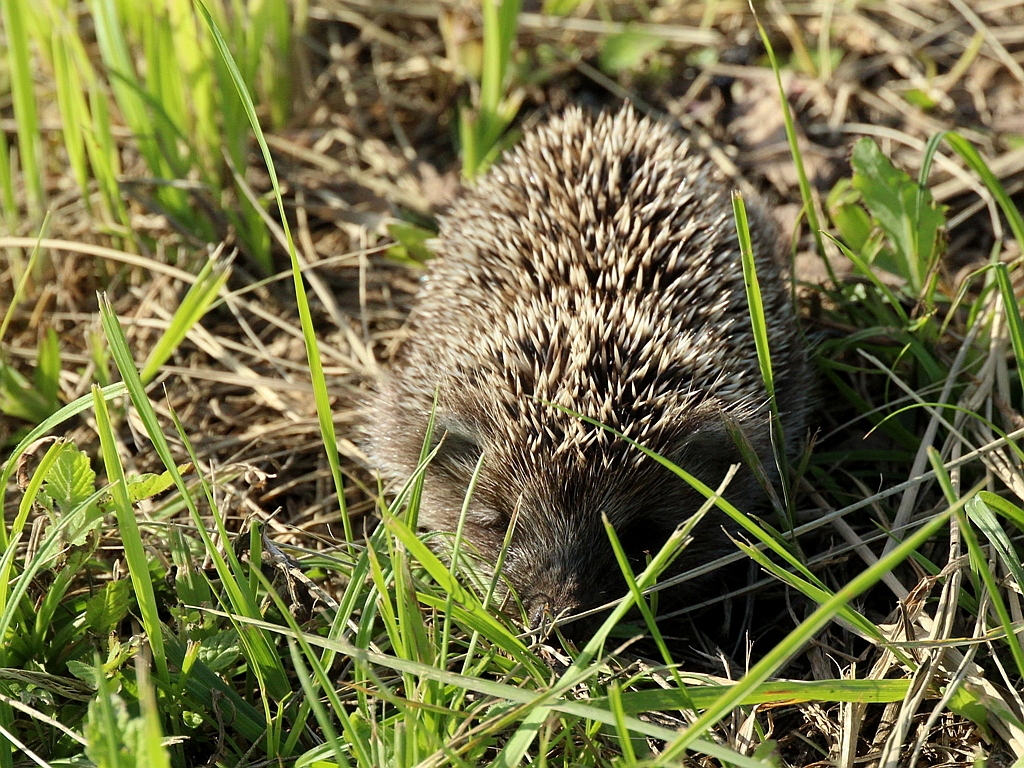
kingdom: Animalia
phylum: Chordata
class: Mammalia
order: Erinaceomorpha
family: Erinaceidae
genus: Erinaceus
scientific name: Erinaceus roumanicus
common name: Northern white-breasted hedgehog
